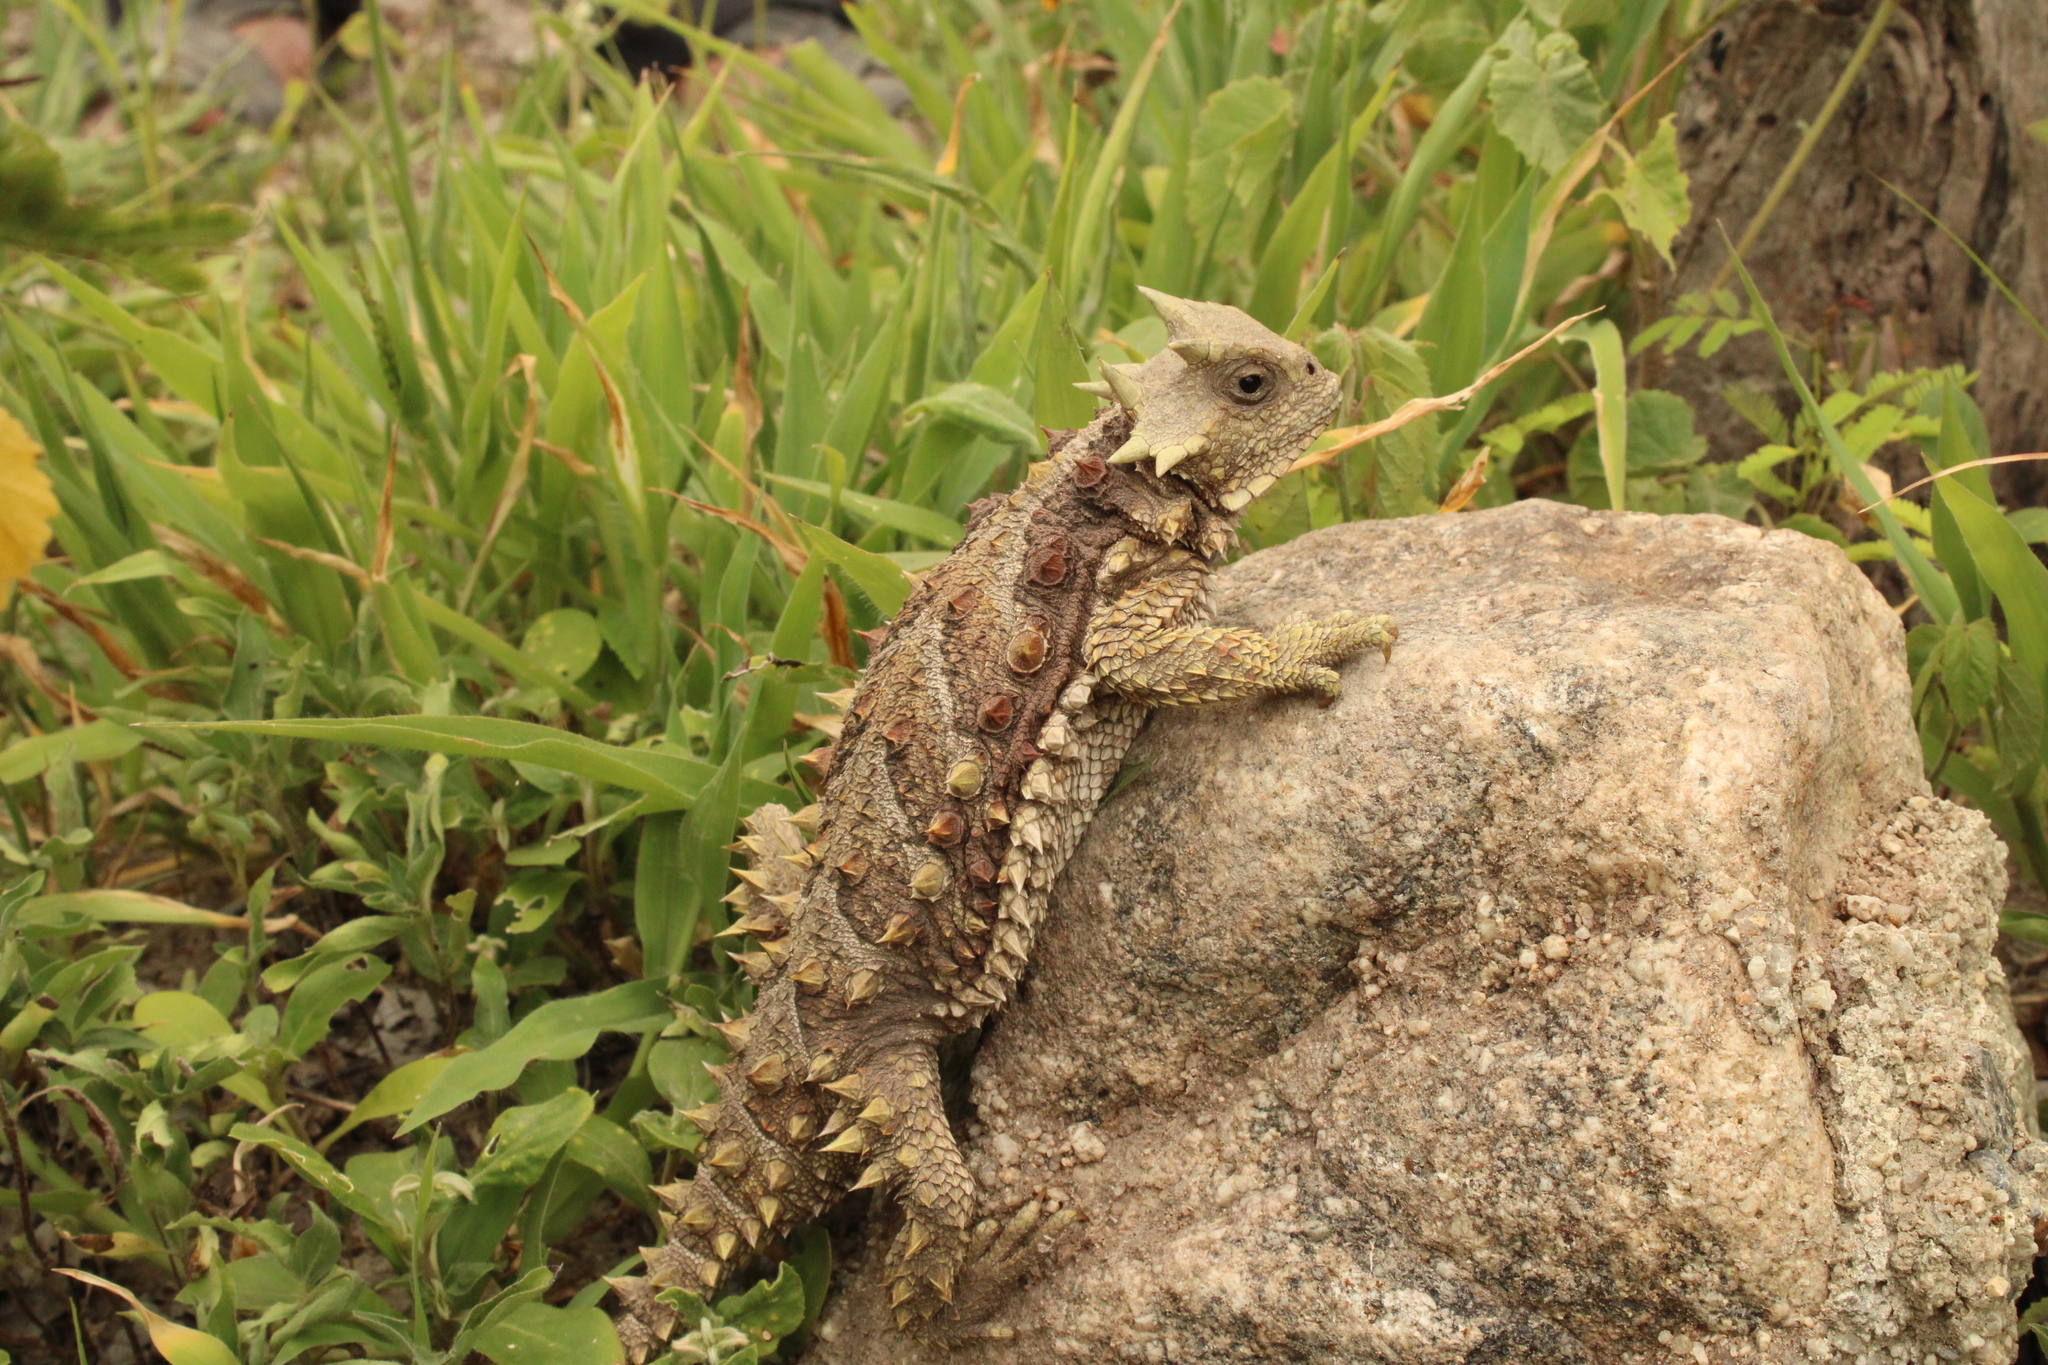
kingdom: Animalia
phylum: Chordata
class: Squamata
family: Phrynosomatidae
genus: Phrynosoma
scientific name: Phrynosoma asio
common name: Giant horned lizard
